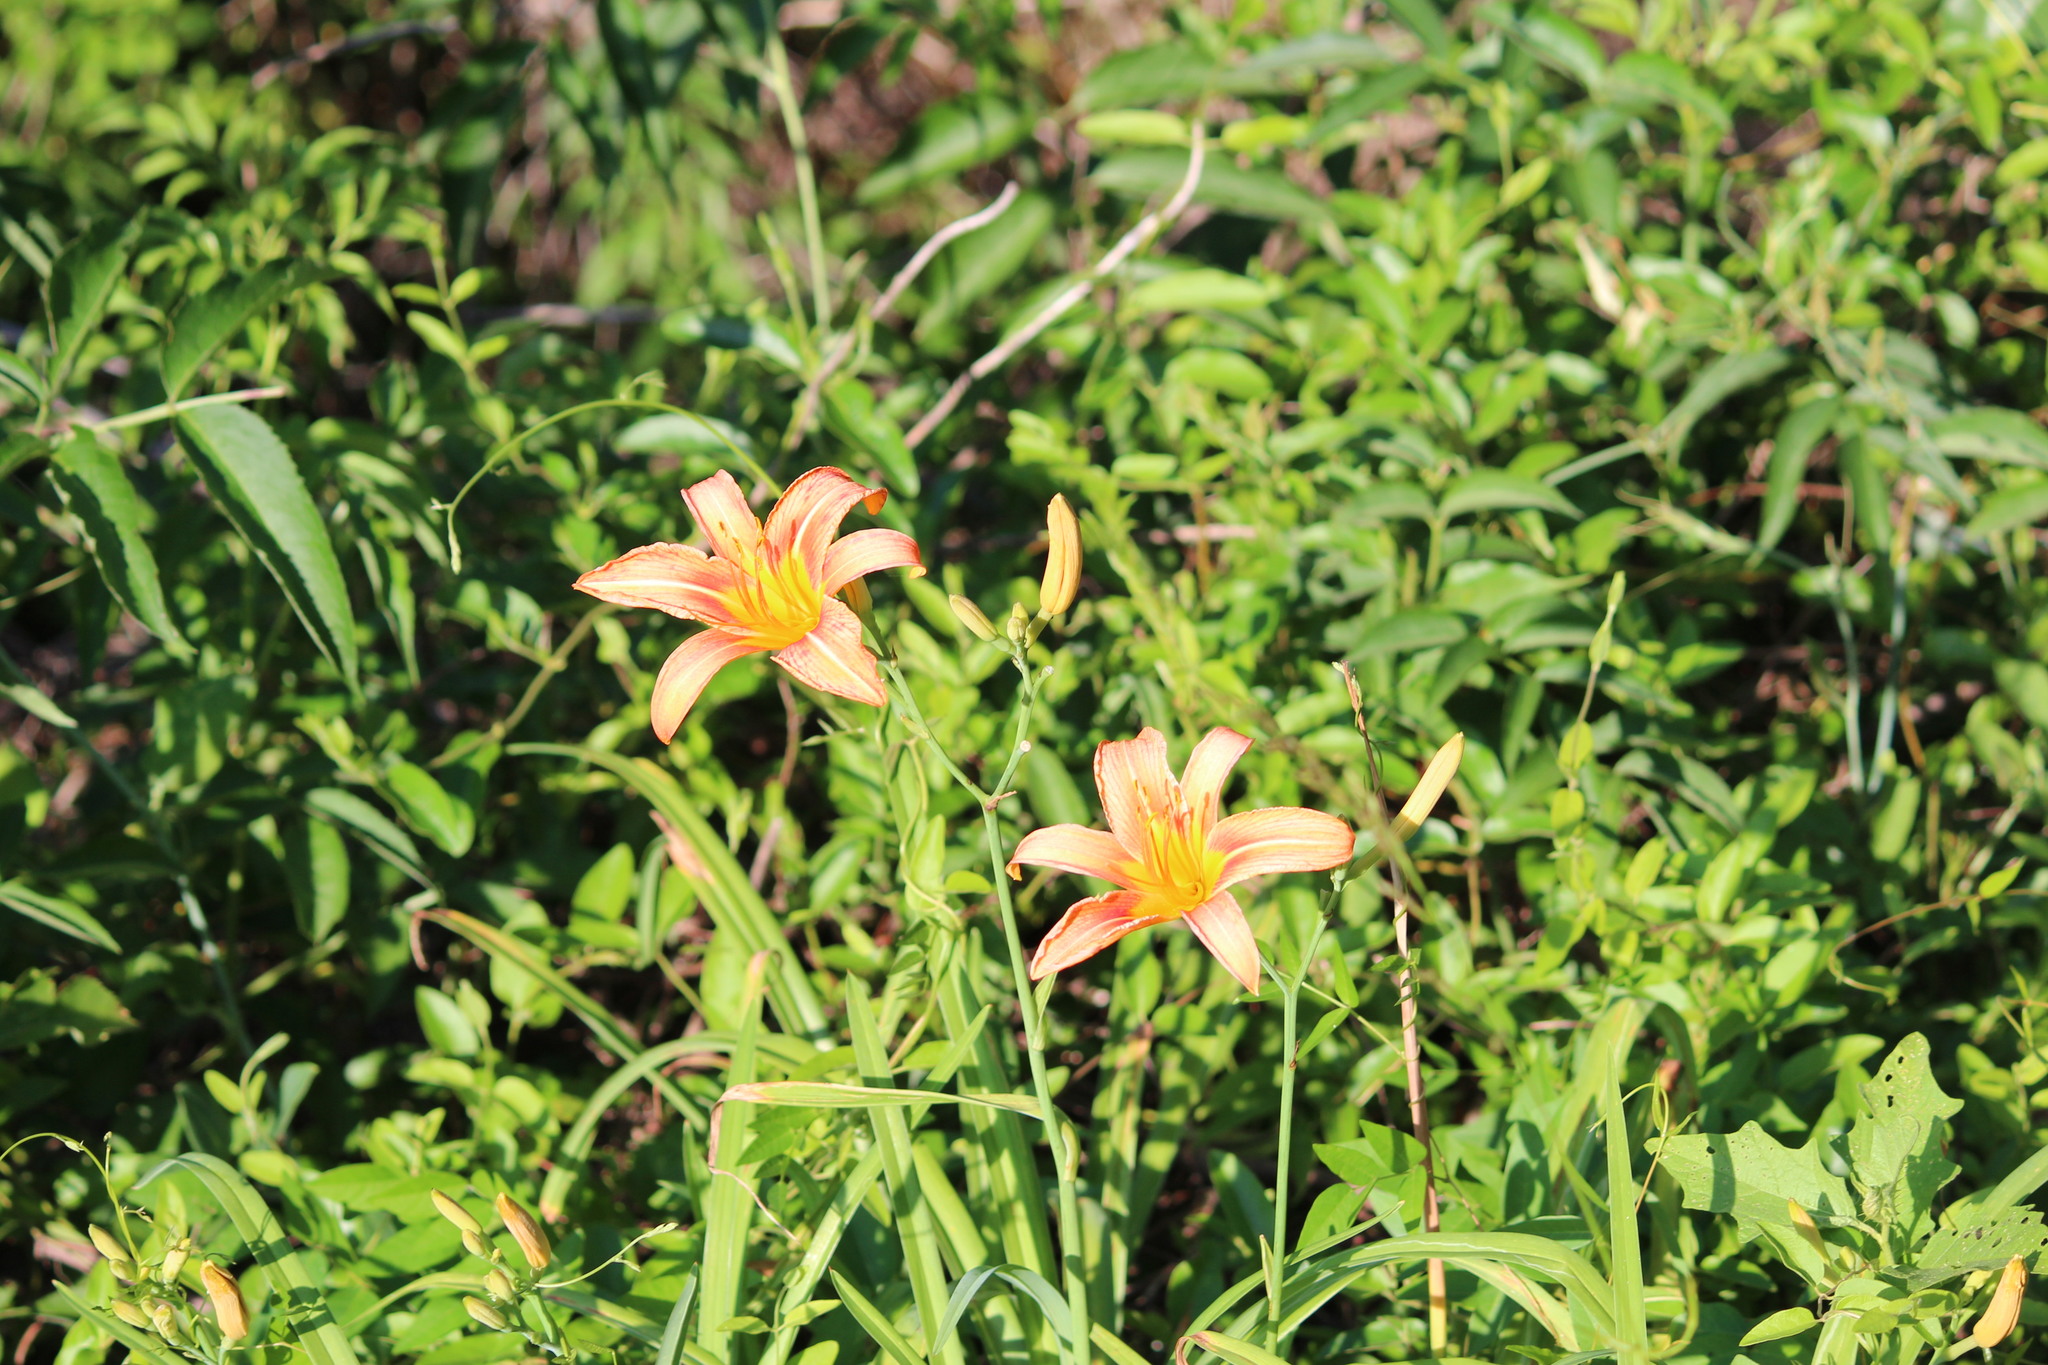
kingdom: Plantae
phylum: Tracheophyta
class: Liliopsida
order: Asparagales
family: Asphodelaceae
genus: Hemerocallis
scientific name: Hemerocallis fulva
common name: Orange day-lily
